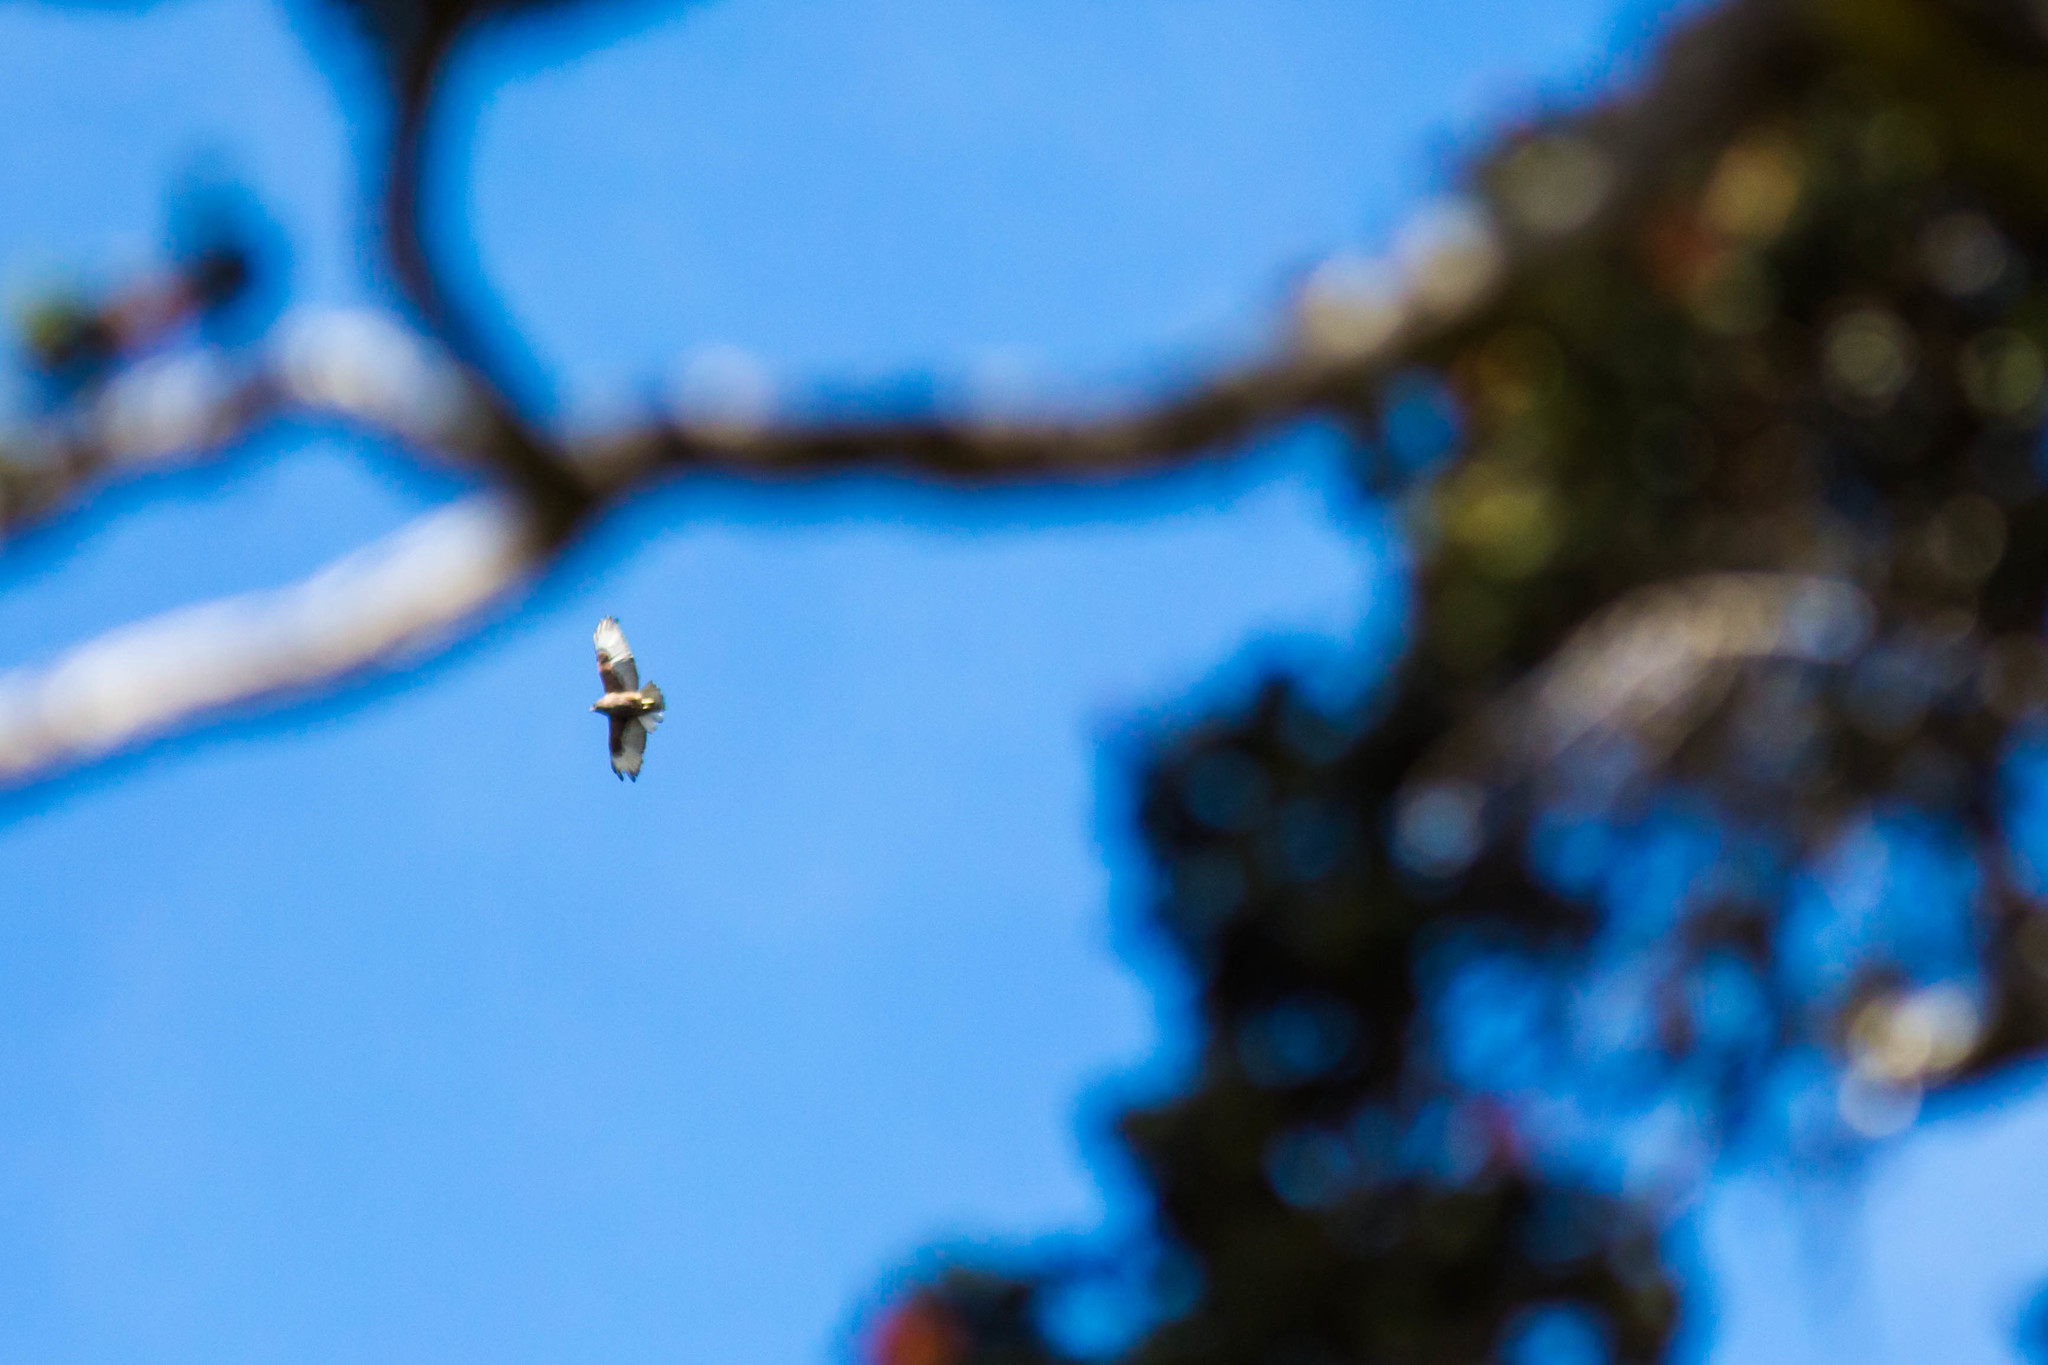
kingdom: Animalia
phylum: Chordata
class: Aves
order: Accipitriformes
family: Accipitridae
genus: Buteo
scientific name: Buteo solitarius
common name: Hawaiian hawk
